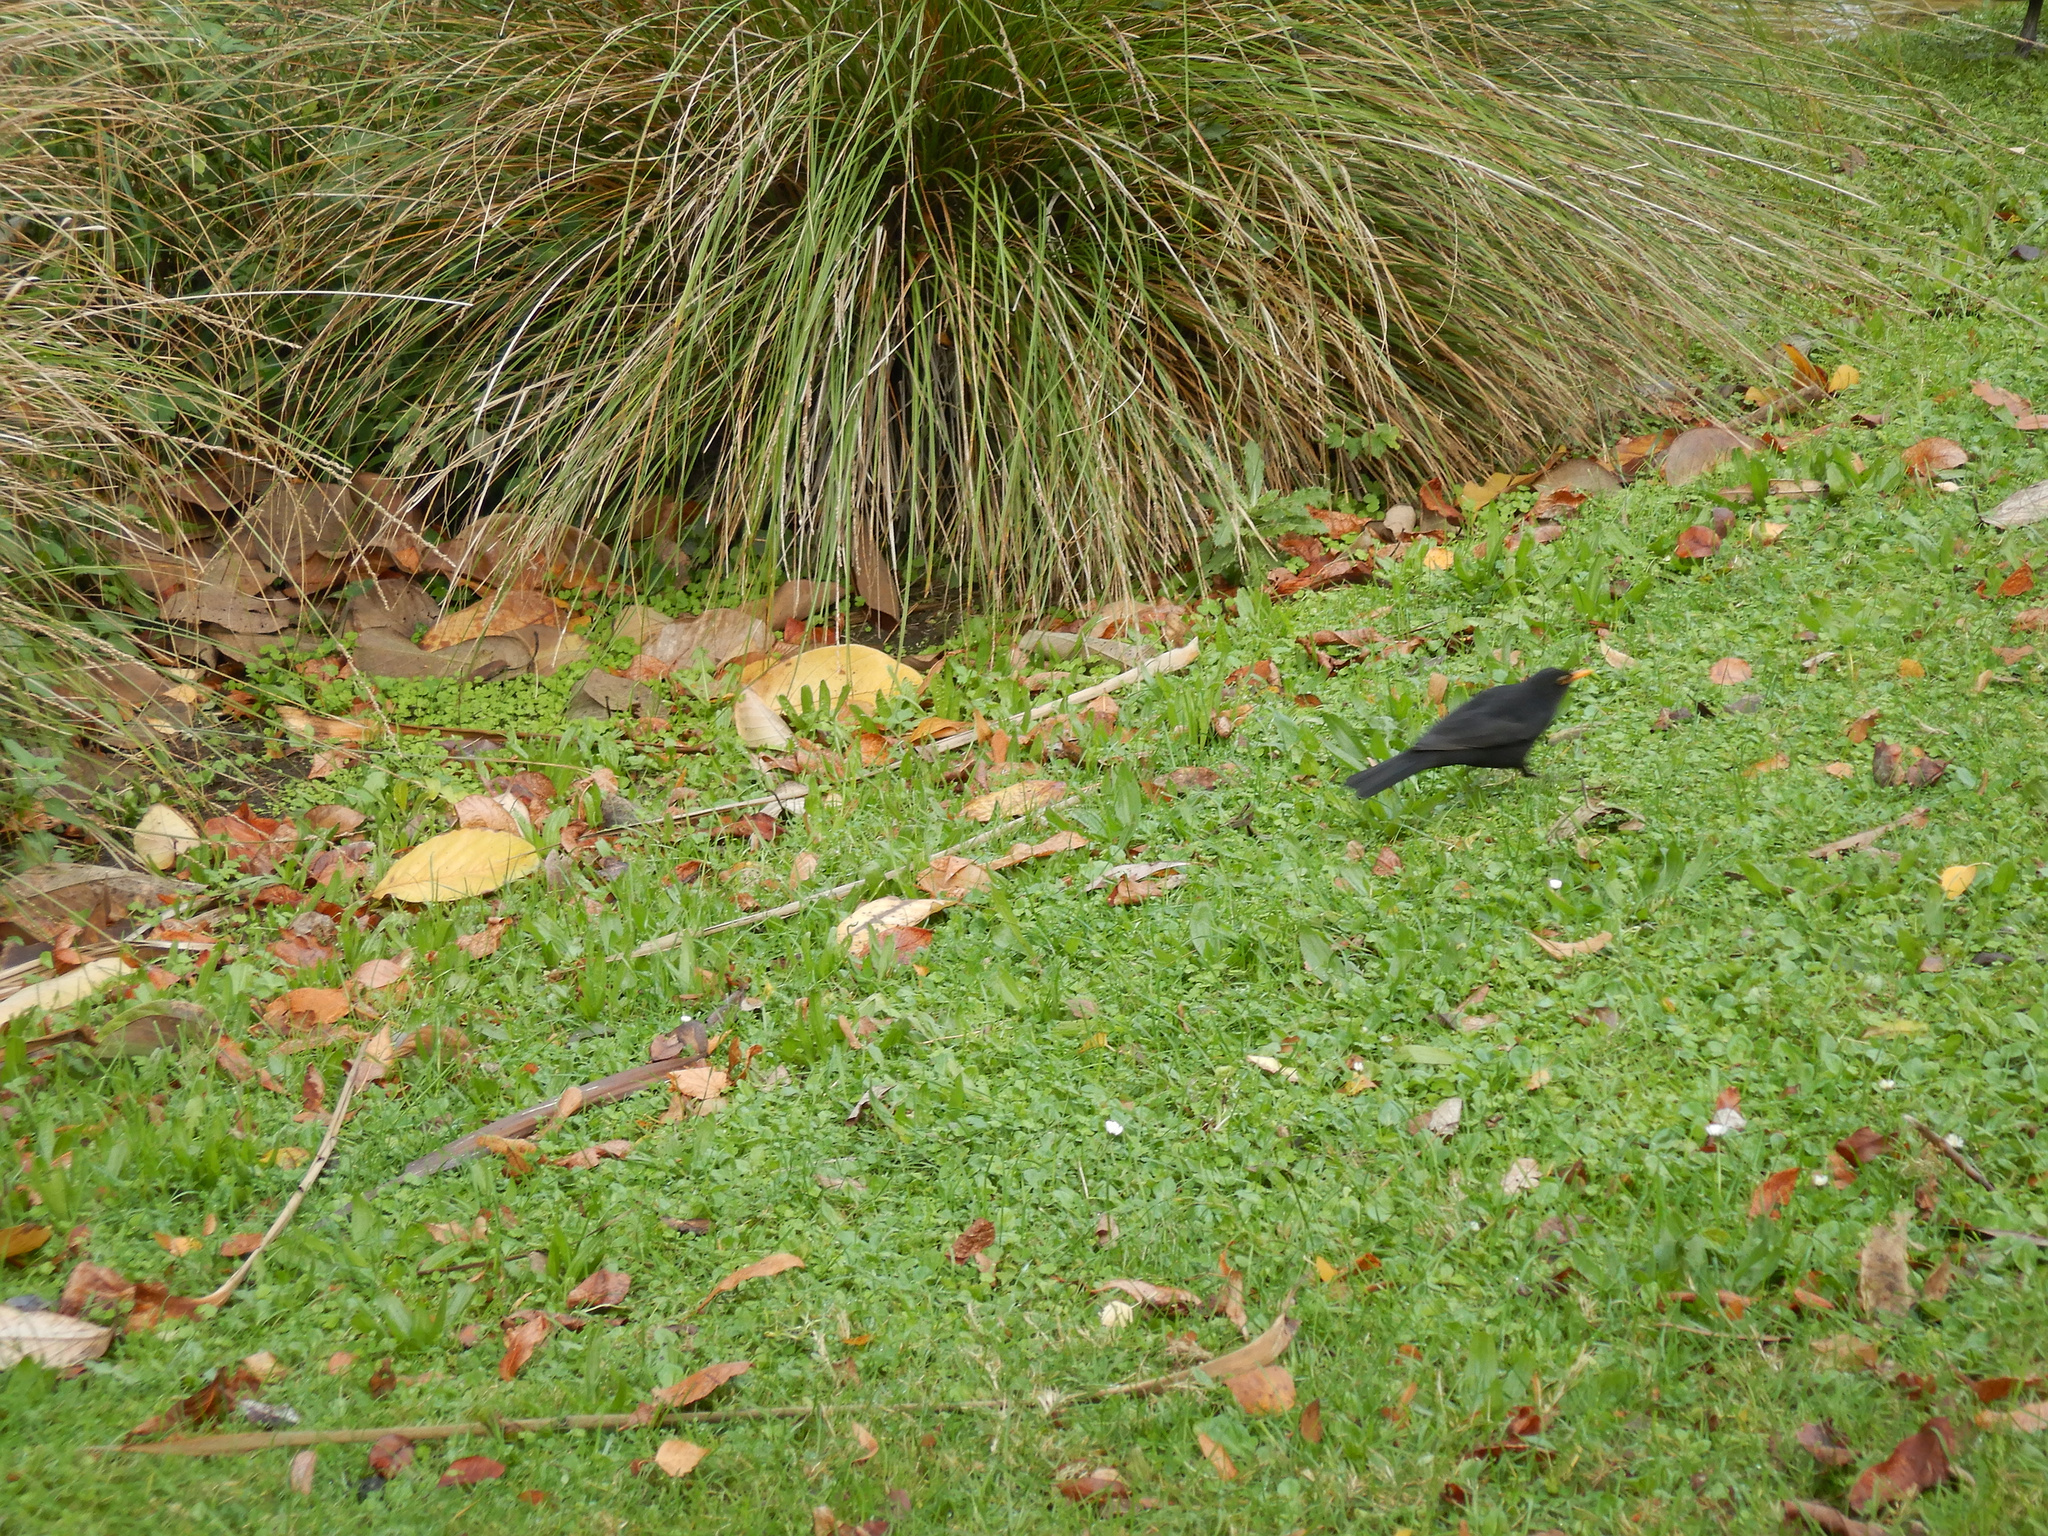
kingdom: Animalia
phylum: Chordata
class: Aves
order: Passeriformes
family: Turdidae
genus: Turdus
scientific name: Turdus merula
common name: Common blackbird
